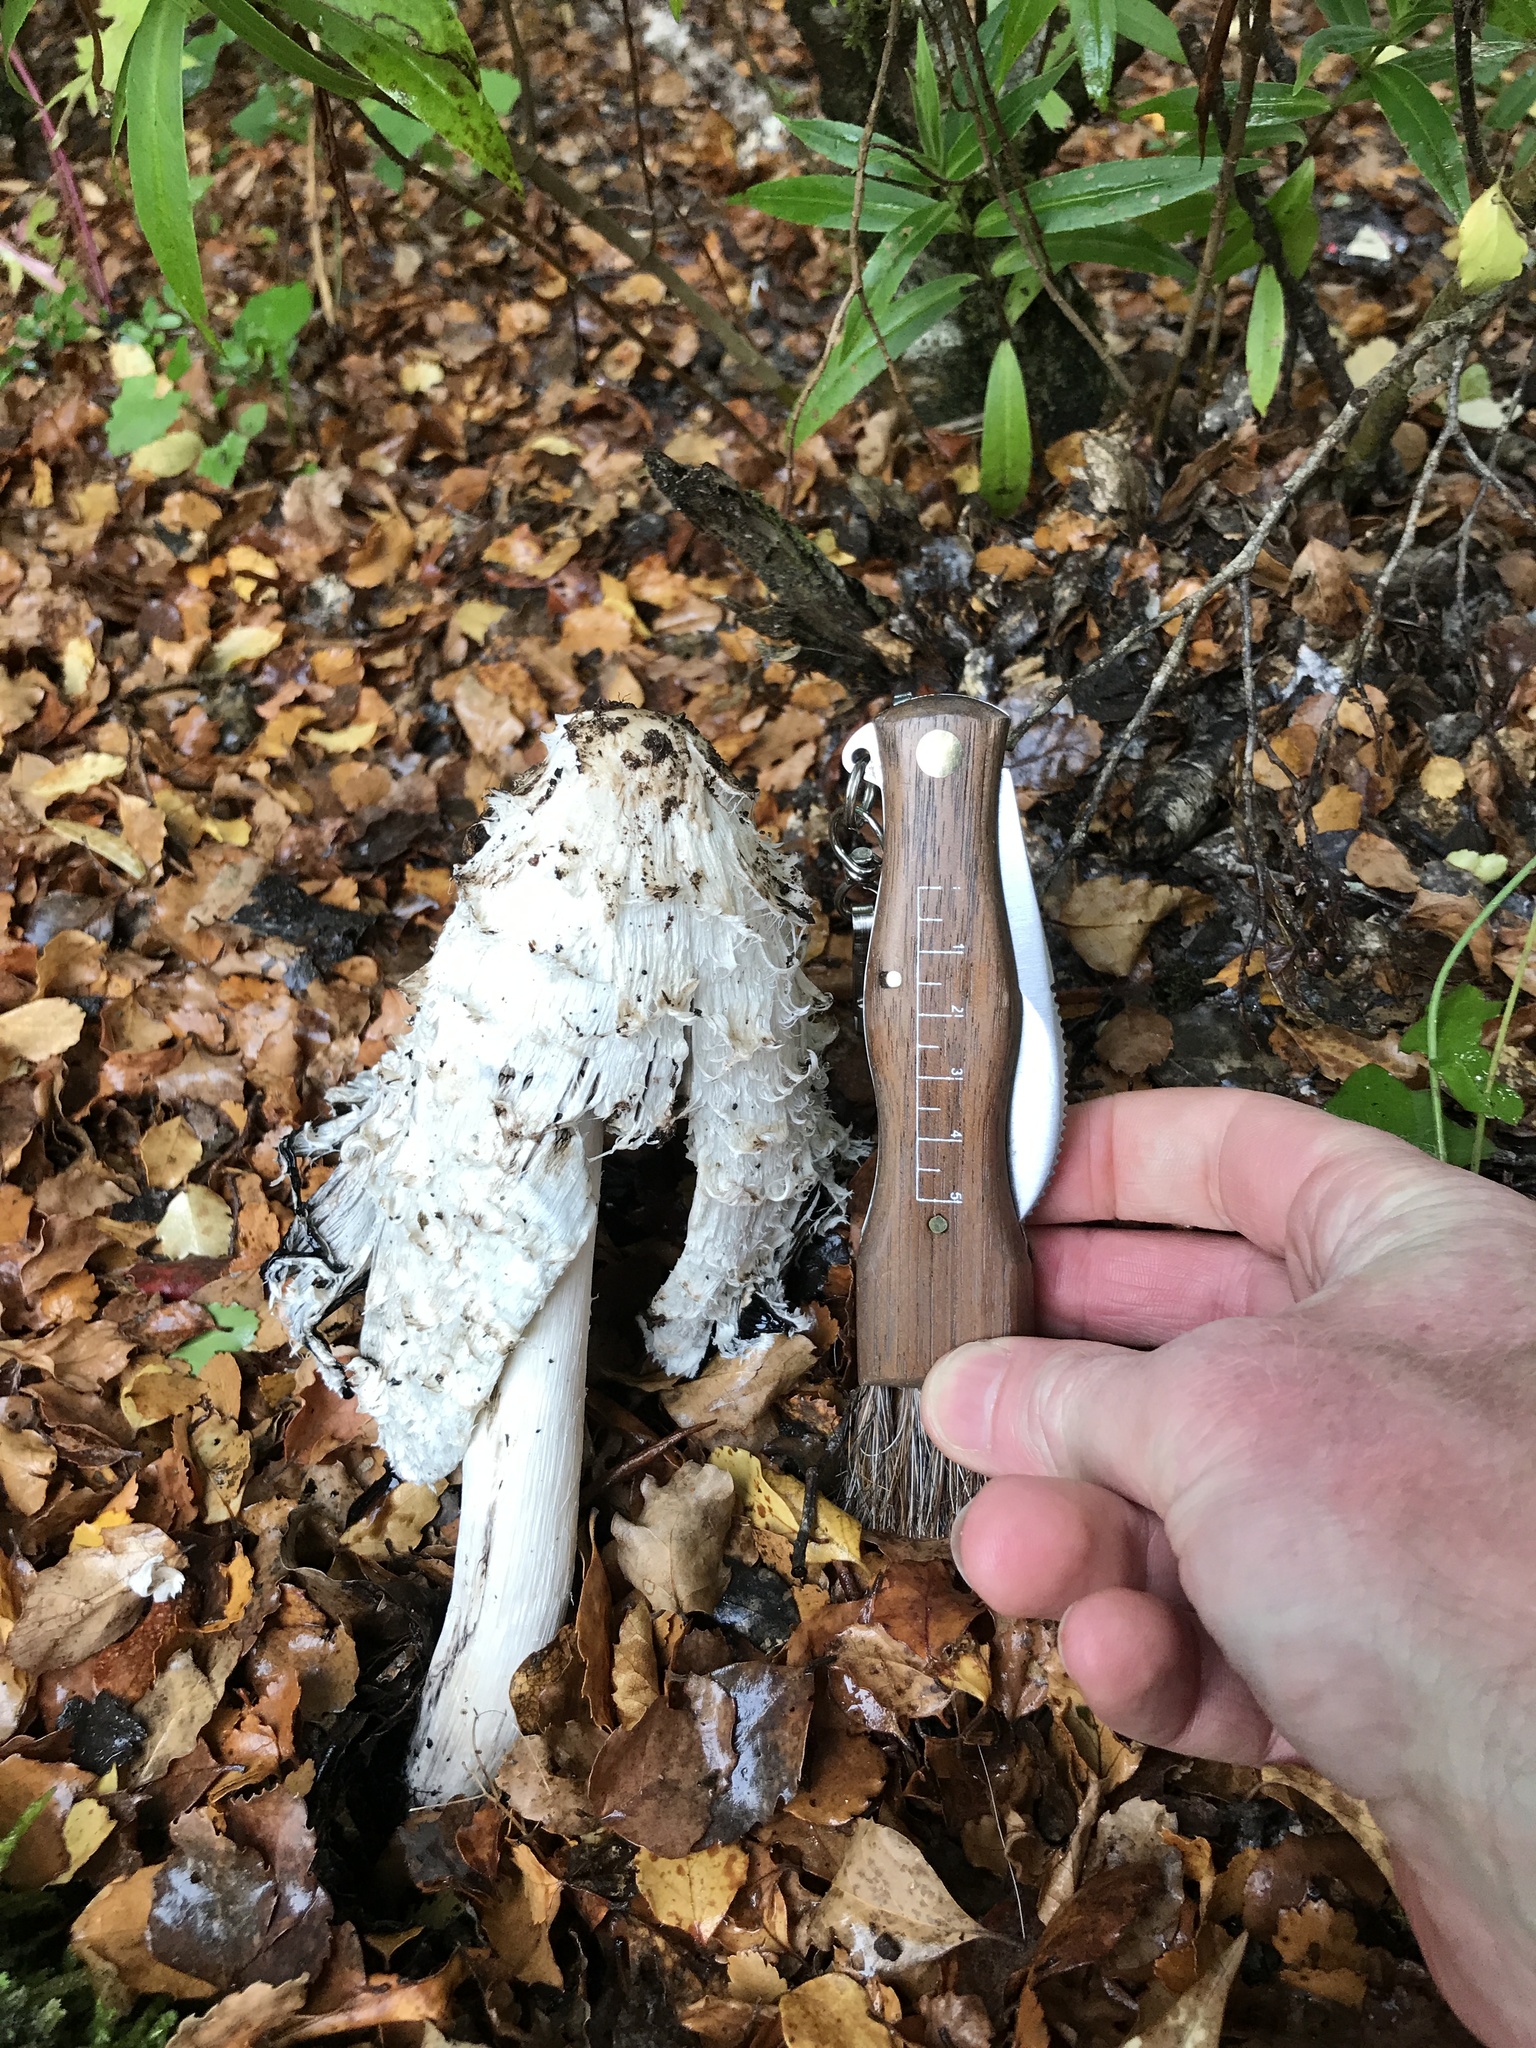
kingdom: Fungi
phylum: Basidiomycota
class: Agaricomycetes
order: Agaricales
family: Agaricaceae
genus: Coprinus
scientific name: Coprinus comatus
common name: Lawyer's wig
